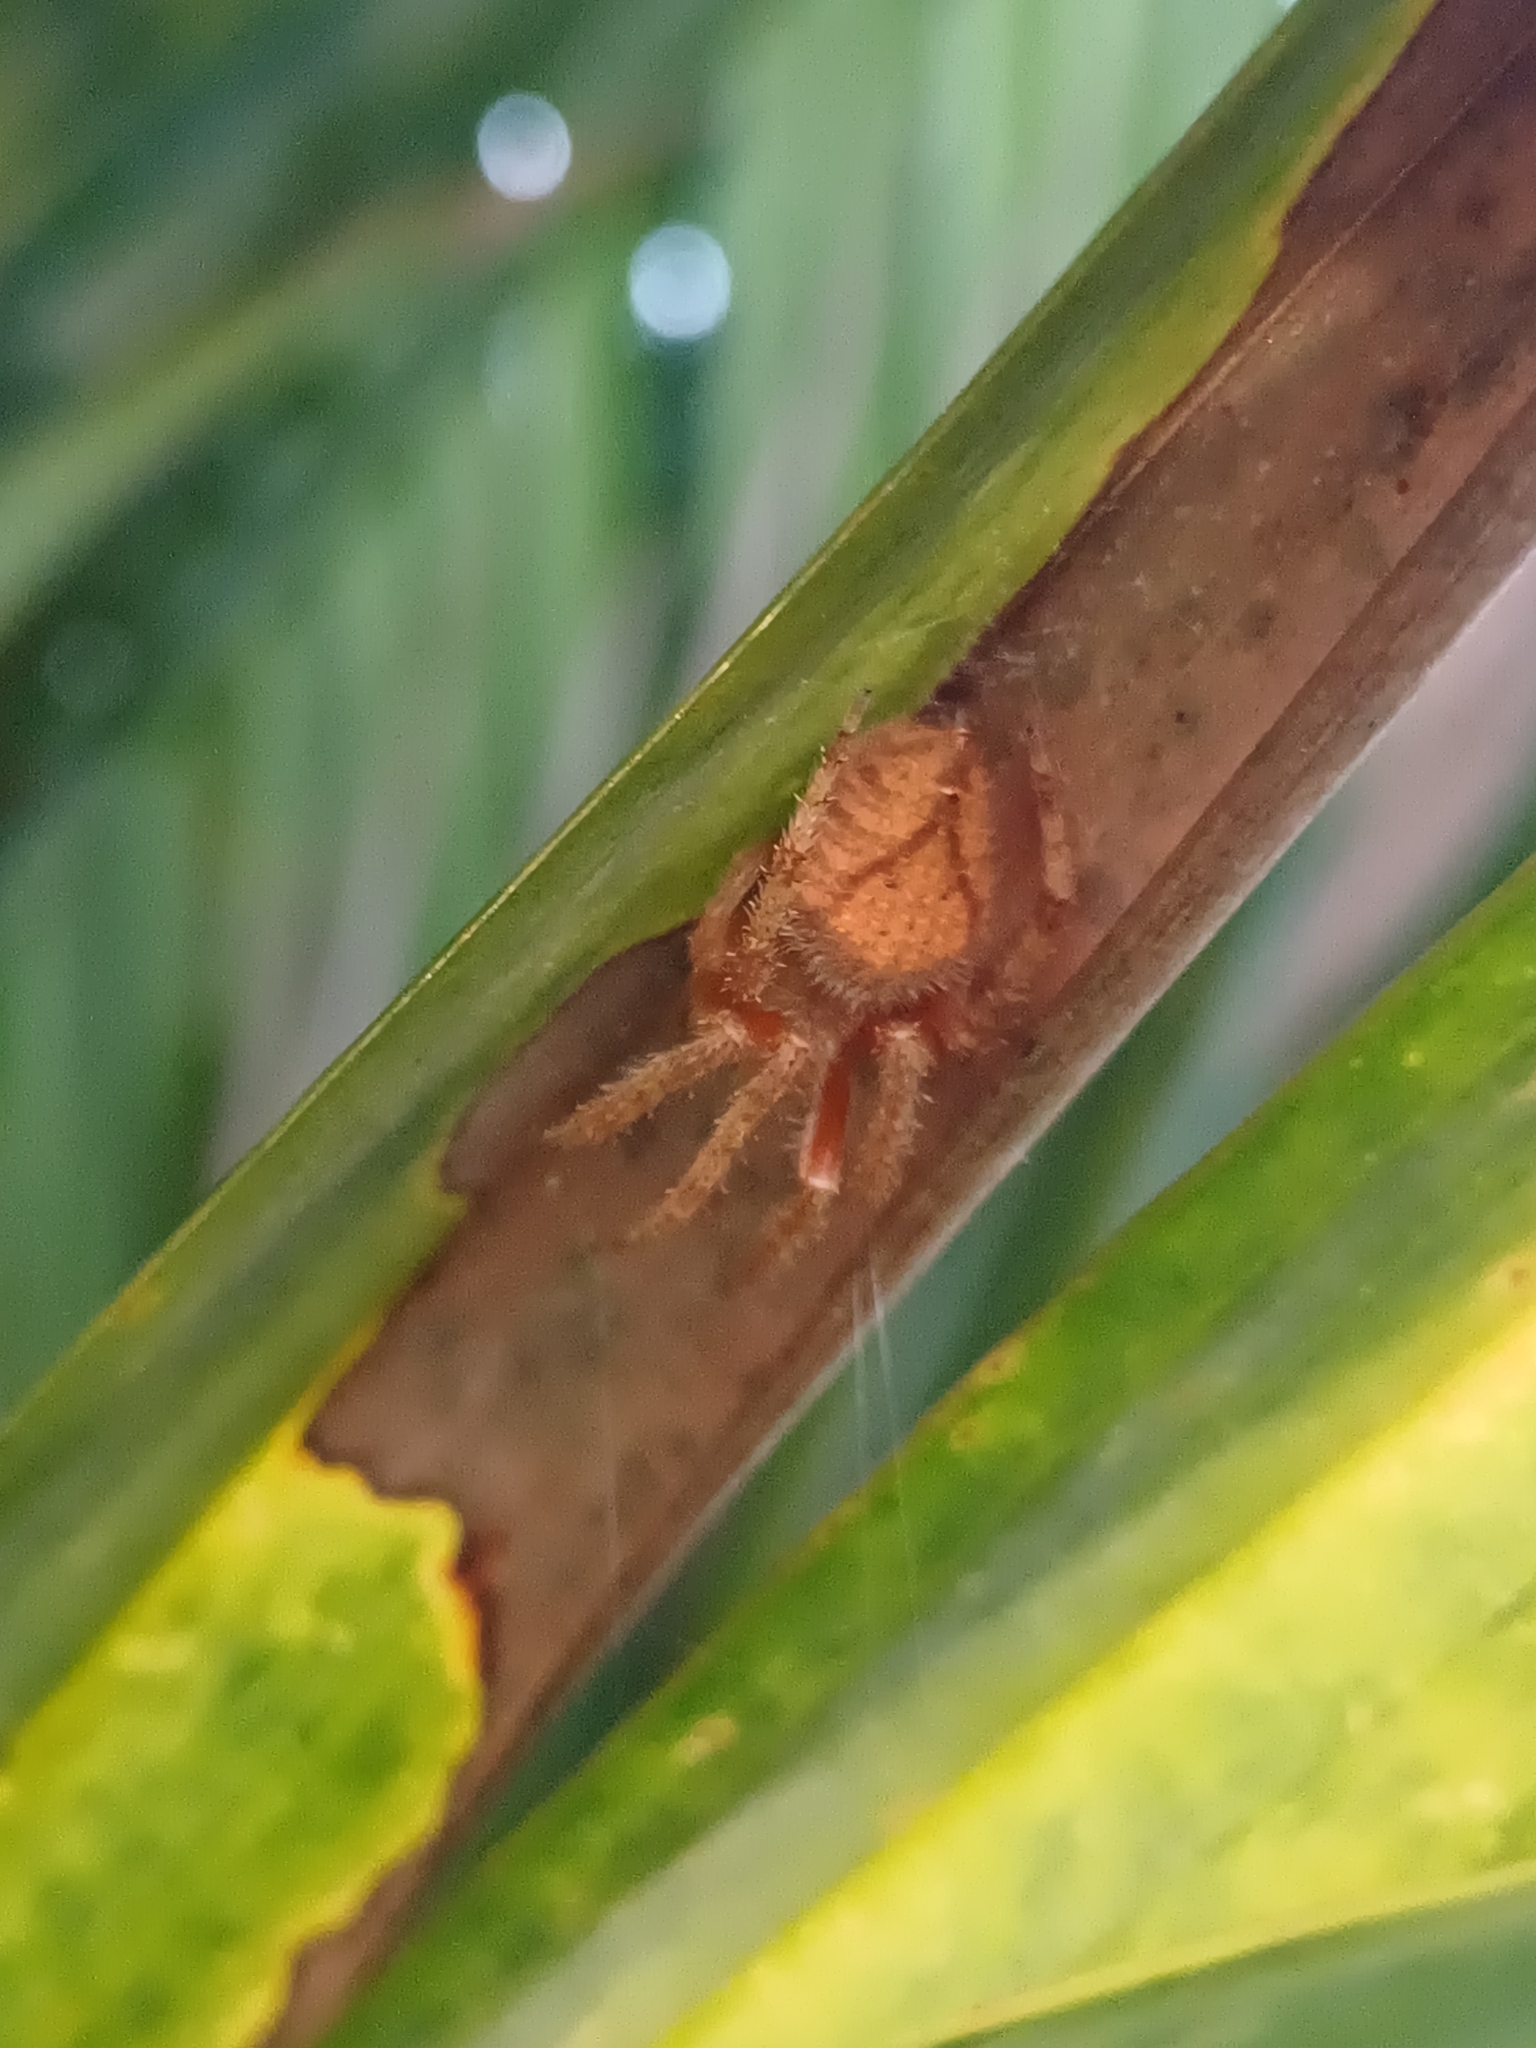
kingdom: Animalia
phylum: Arthropoda
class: Arachnida
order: Araneae
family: Araneidae
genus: Eriophora
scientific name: Eriophora edax
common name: Orb weavers
